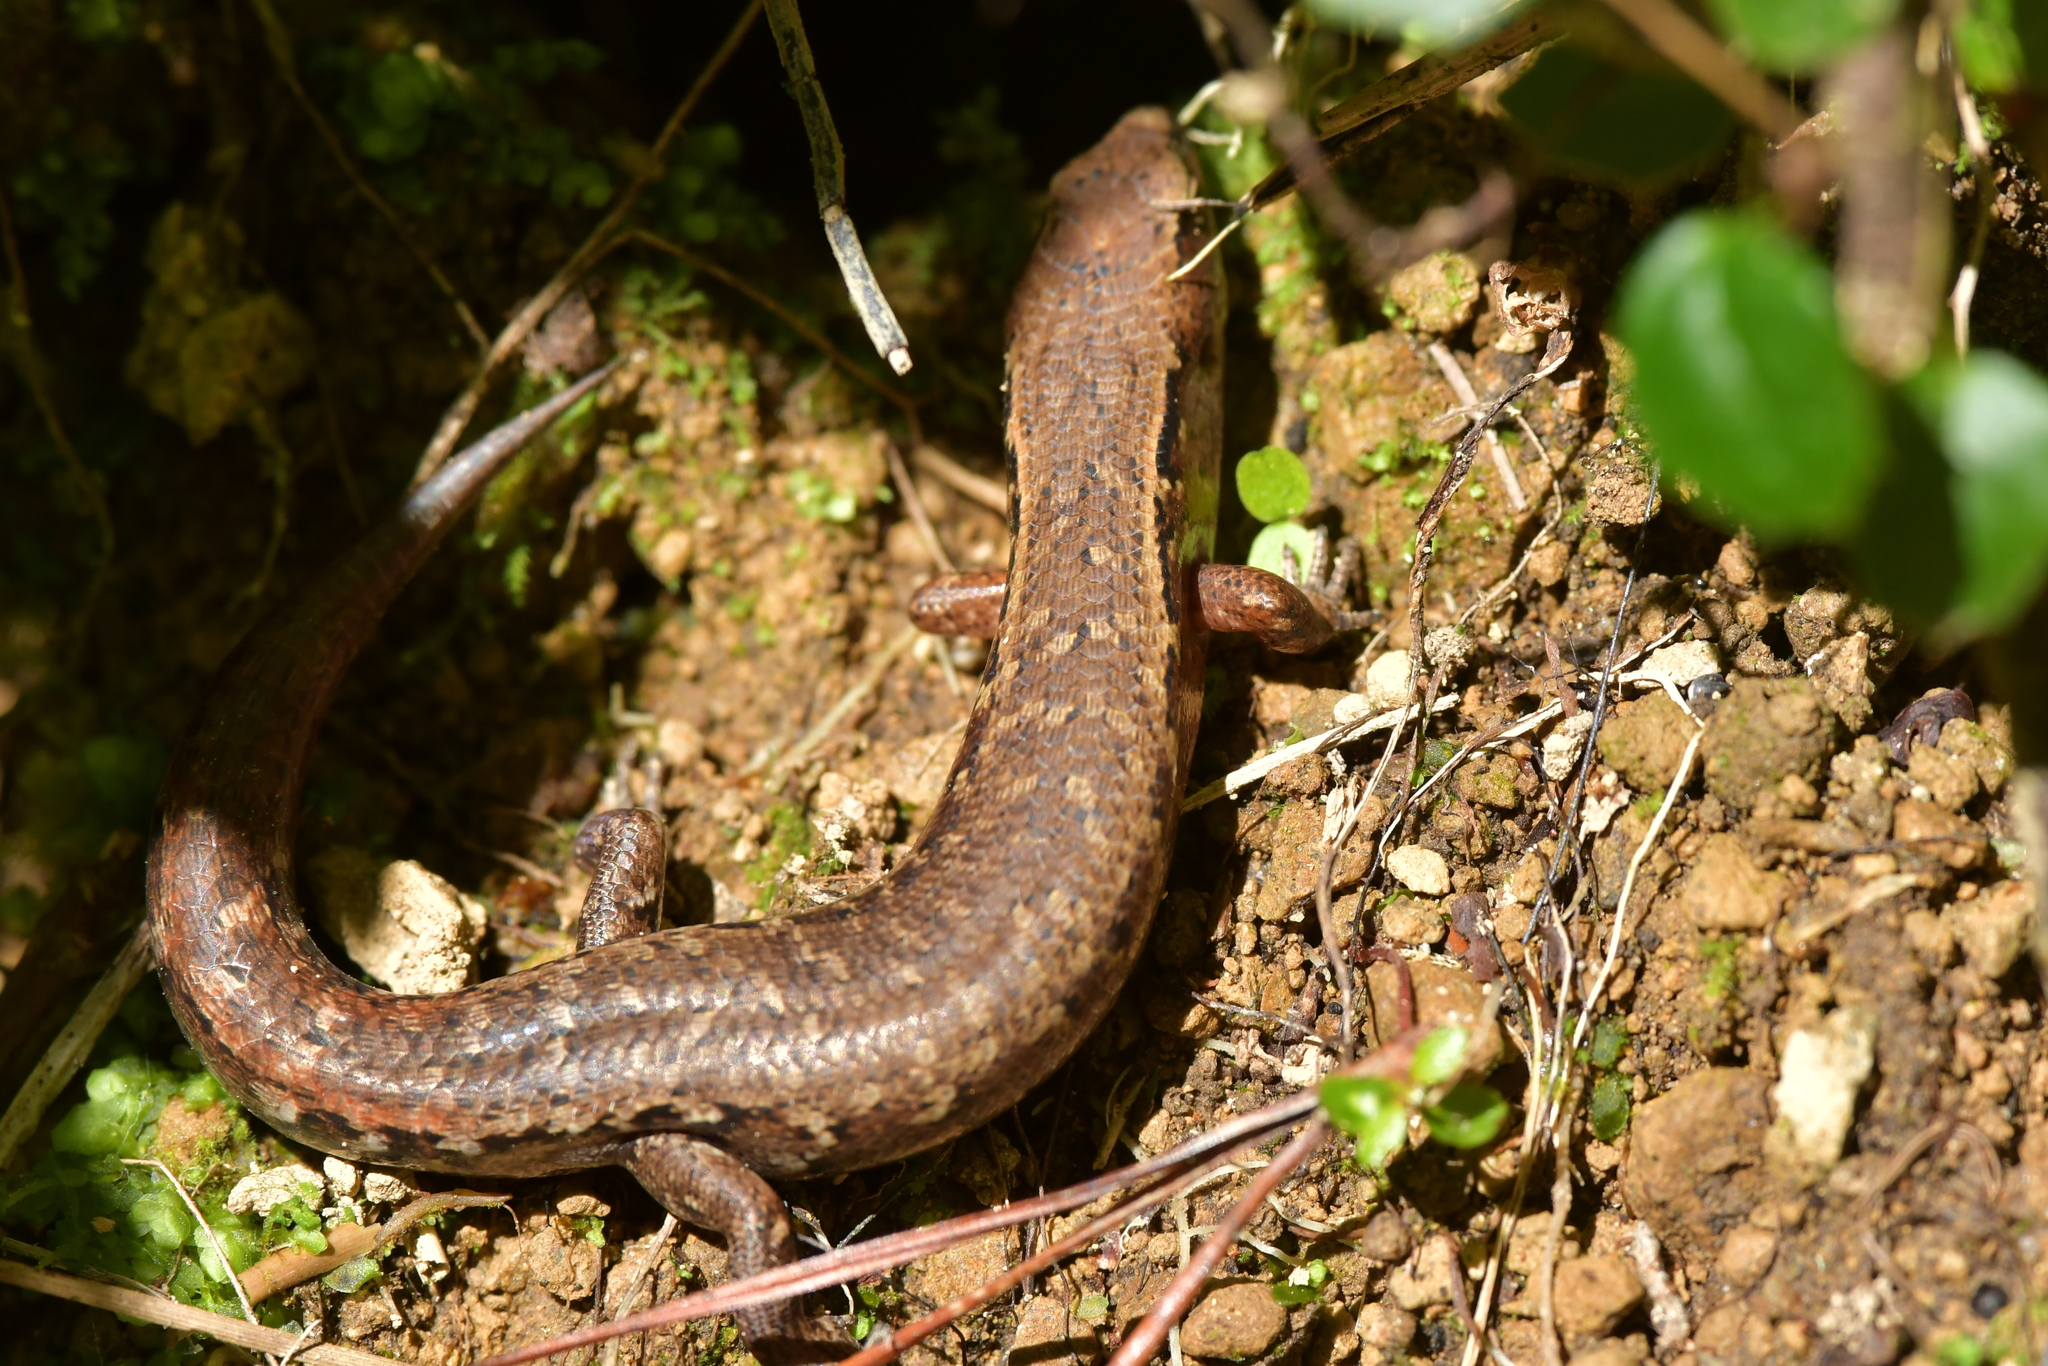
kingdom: Animalia
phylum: Chordata
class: Squamata
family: Scincidae
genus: Oligosoma
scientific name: Oligosoma ornatum
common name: Gray's ornate skink
